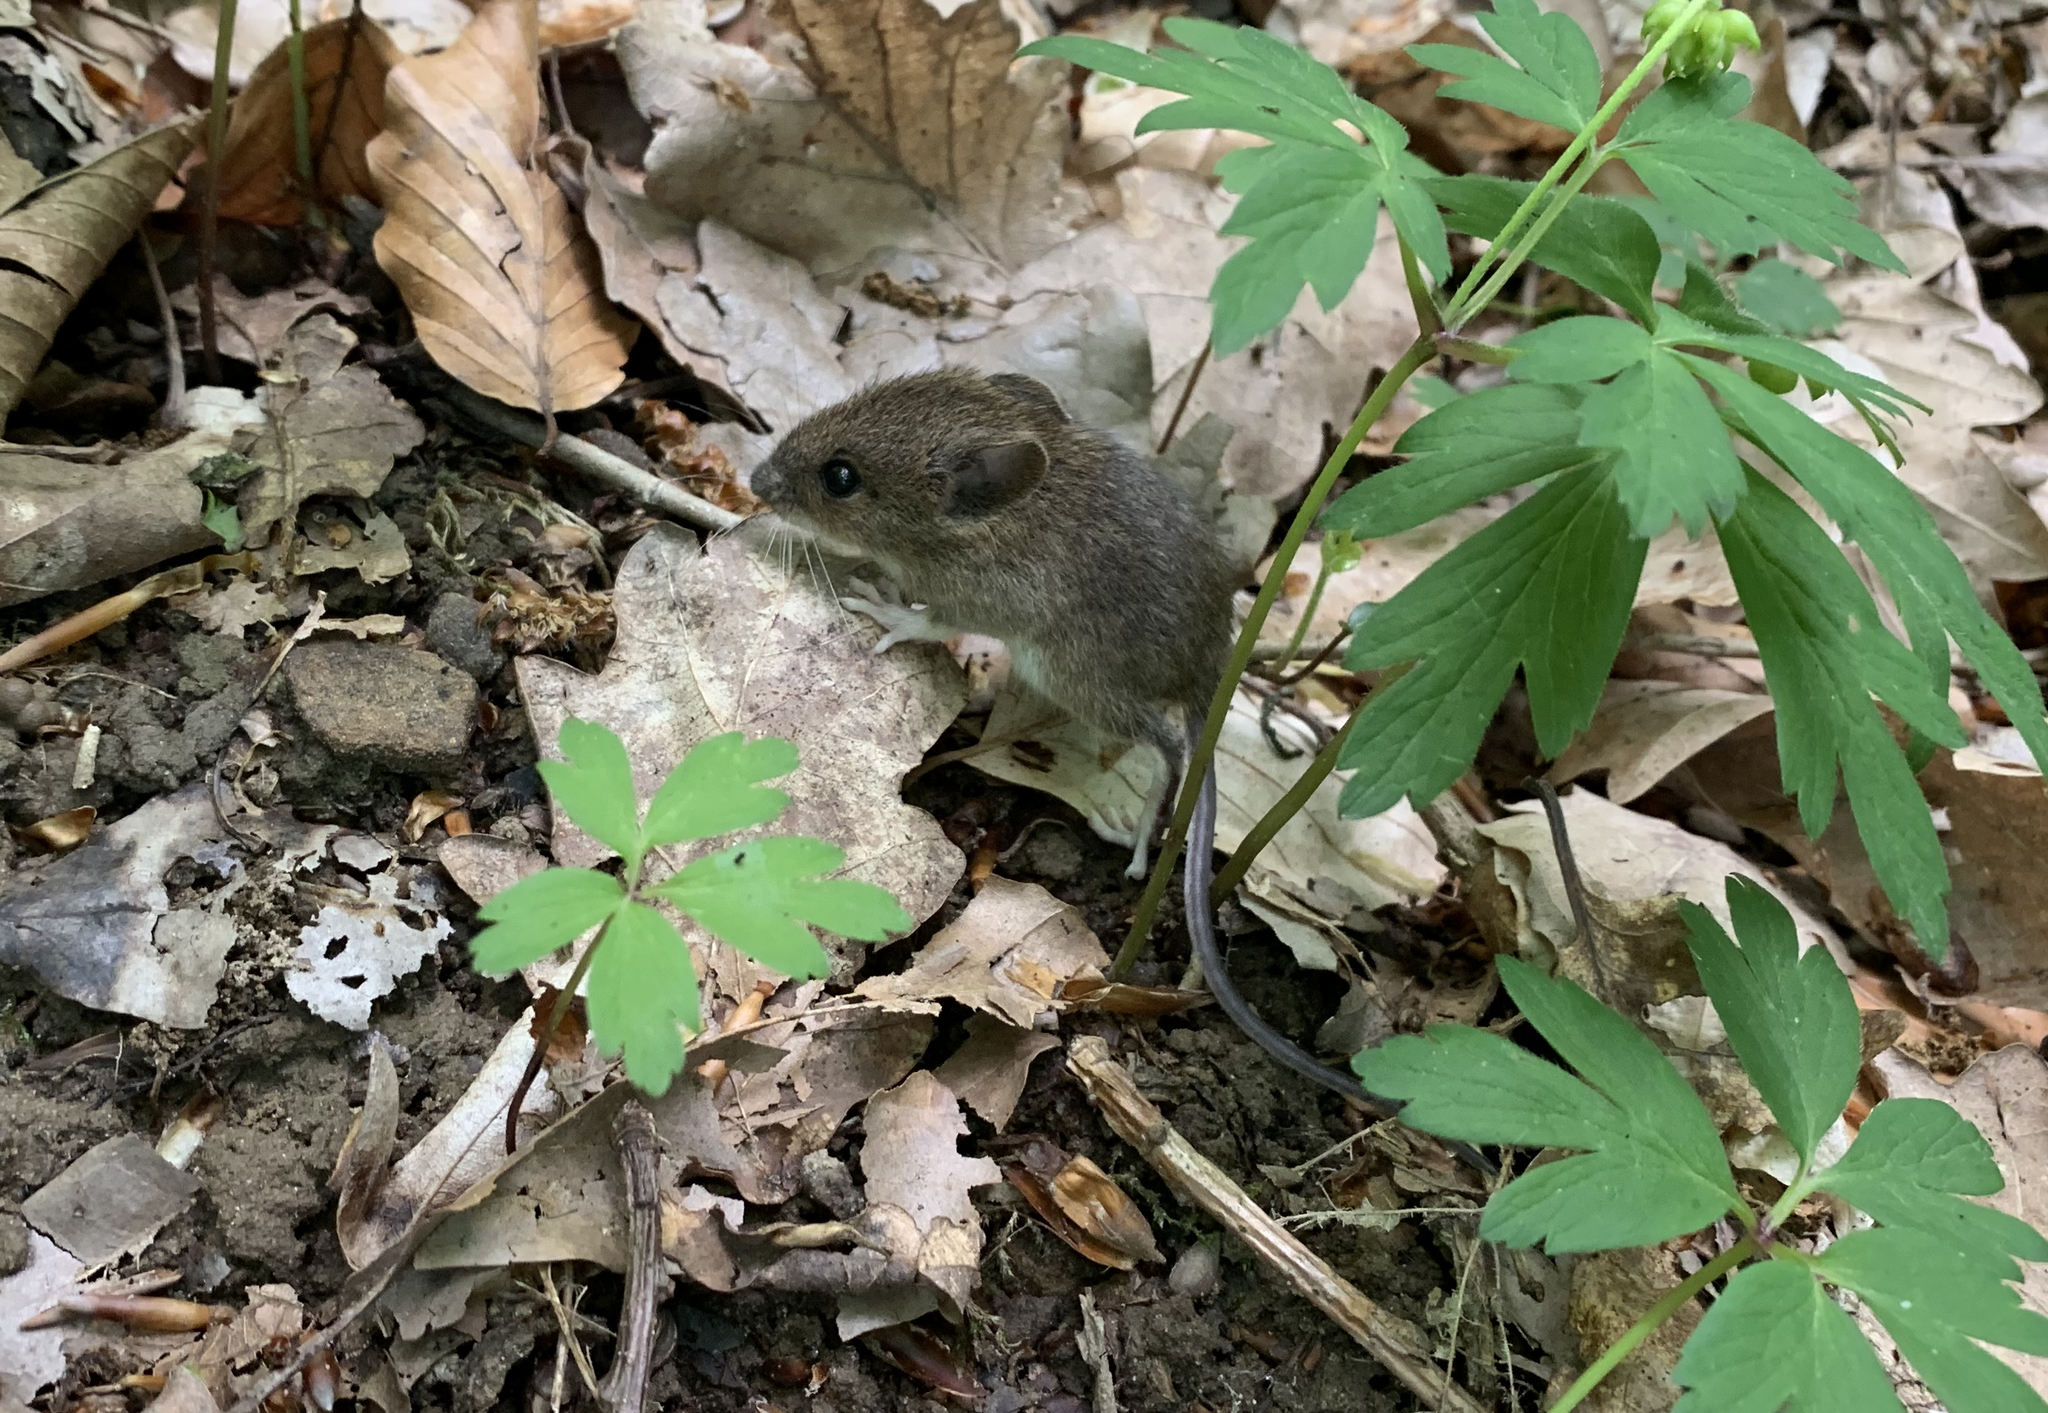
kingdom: Animalia
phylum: Chordata
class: Mammalia
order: Rodentia
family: Muridae
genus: Apodemus
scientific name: Apodemus
